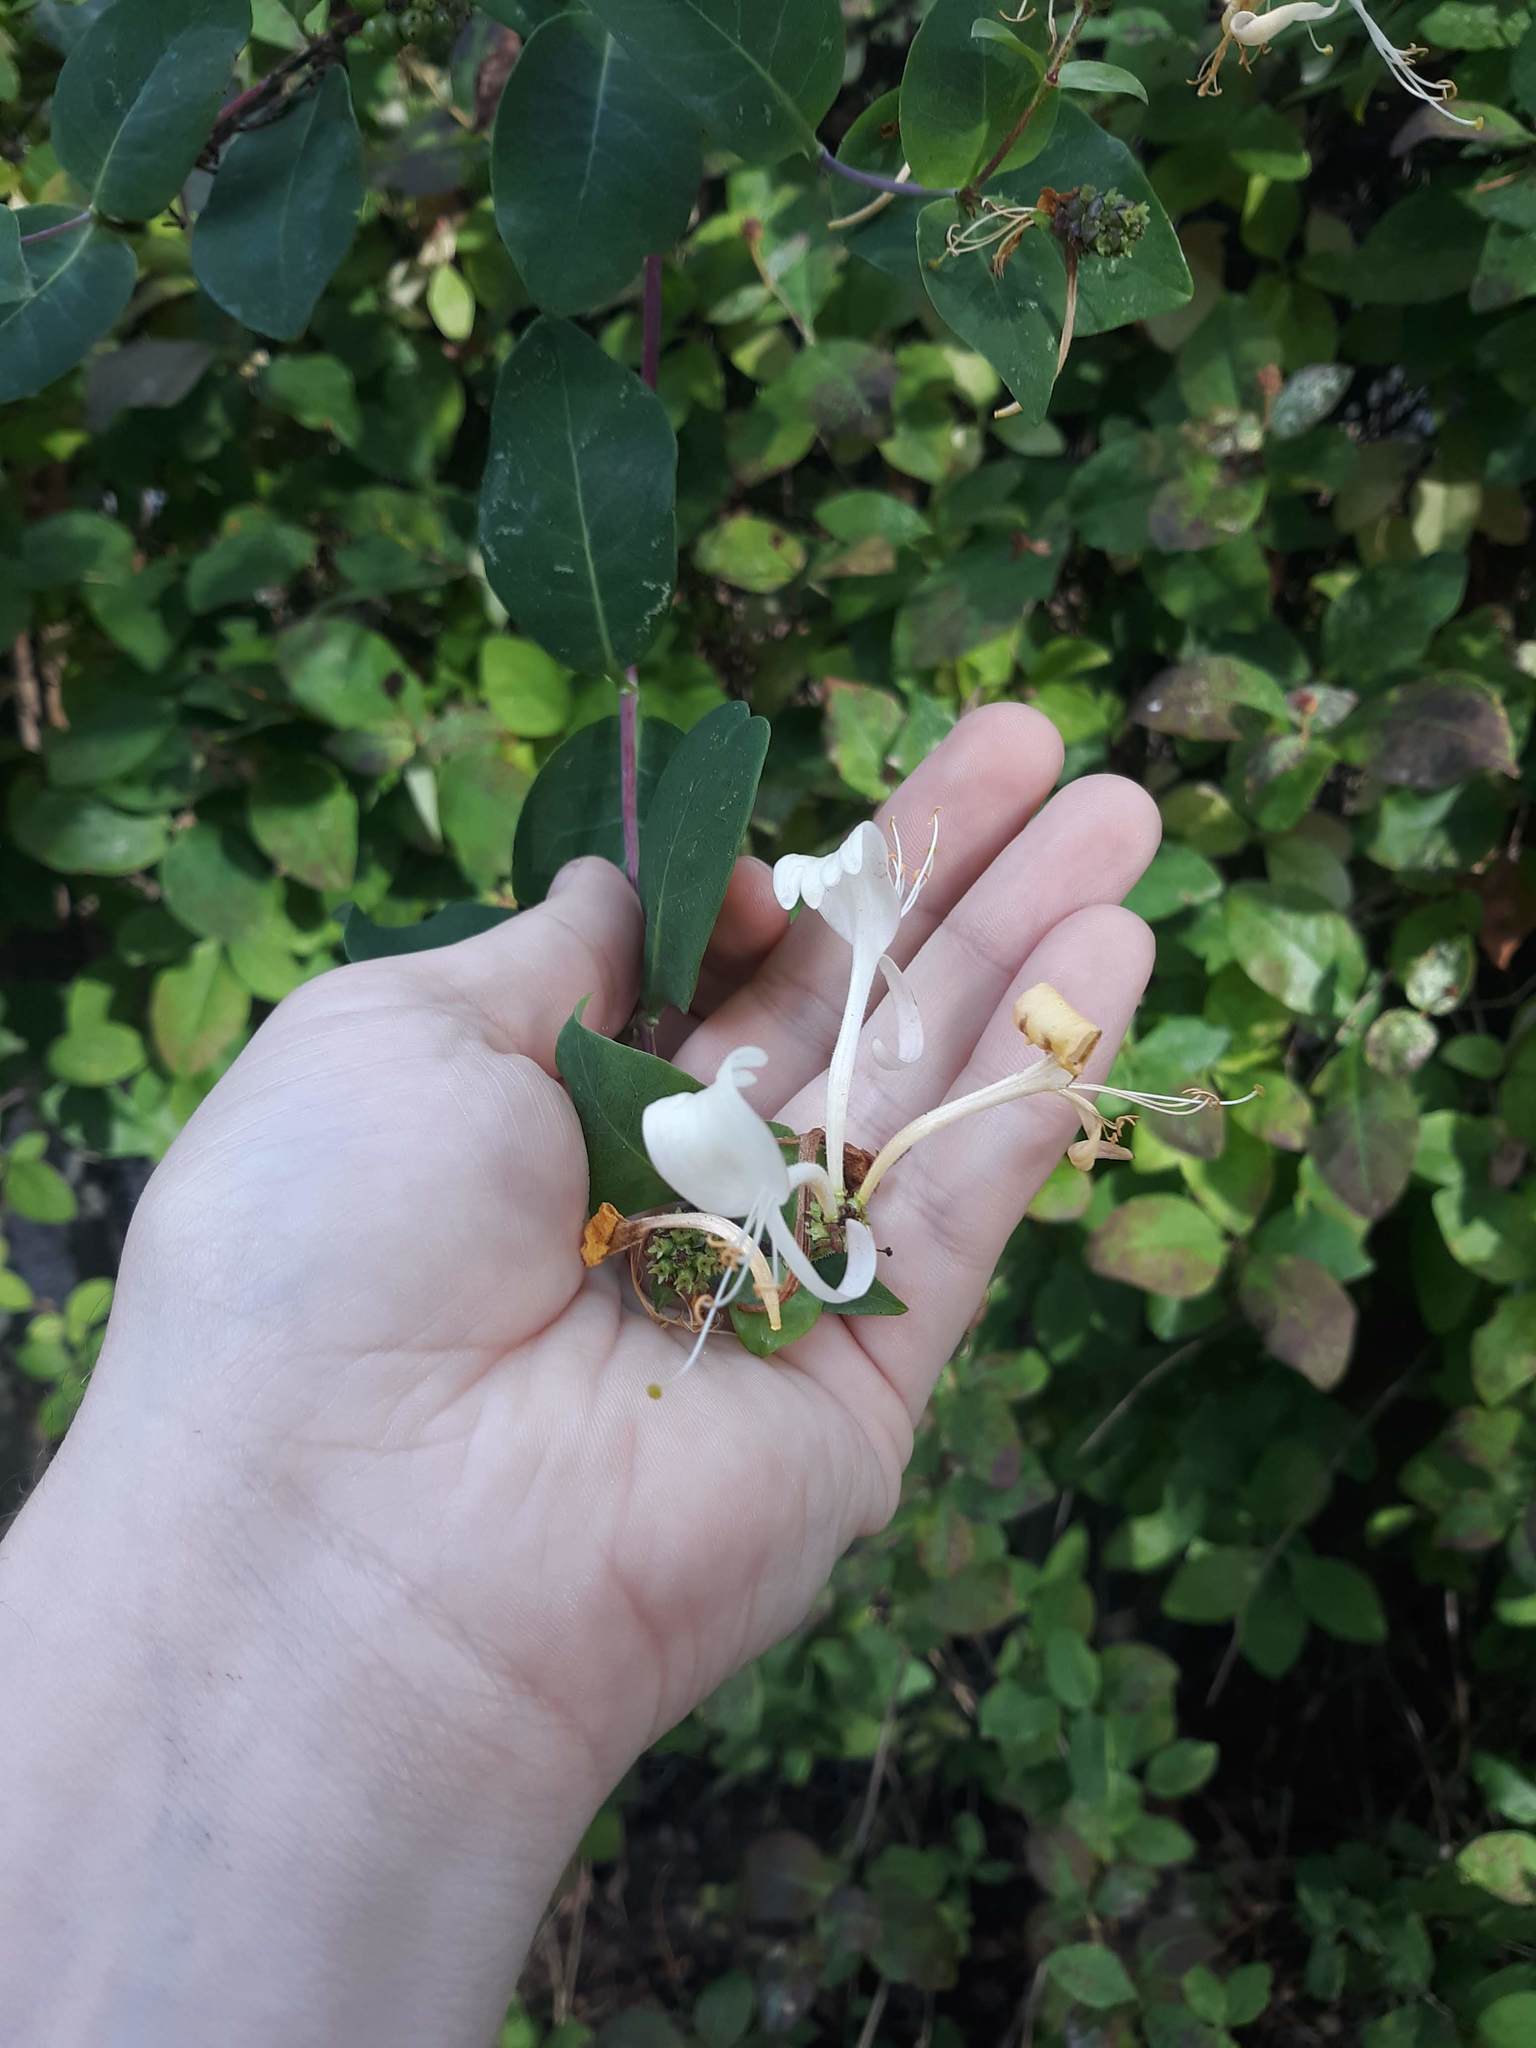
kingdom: Plantae
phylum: Tracheophyta
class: Magnoliopsida
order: Dipsacales
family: Caprifoliaceae
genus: Lonicera
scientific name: Lonicera periclymenum
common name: European honeysuckle
